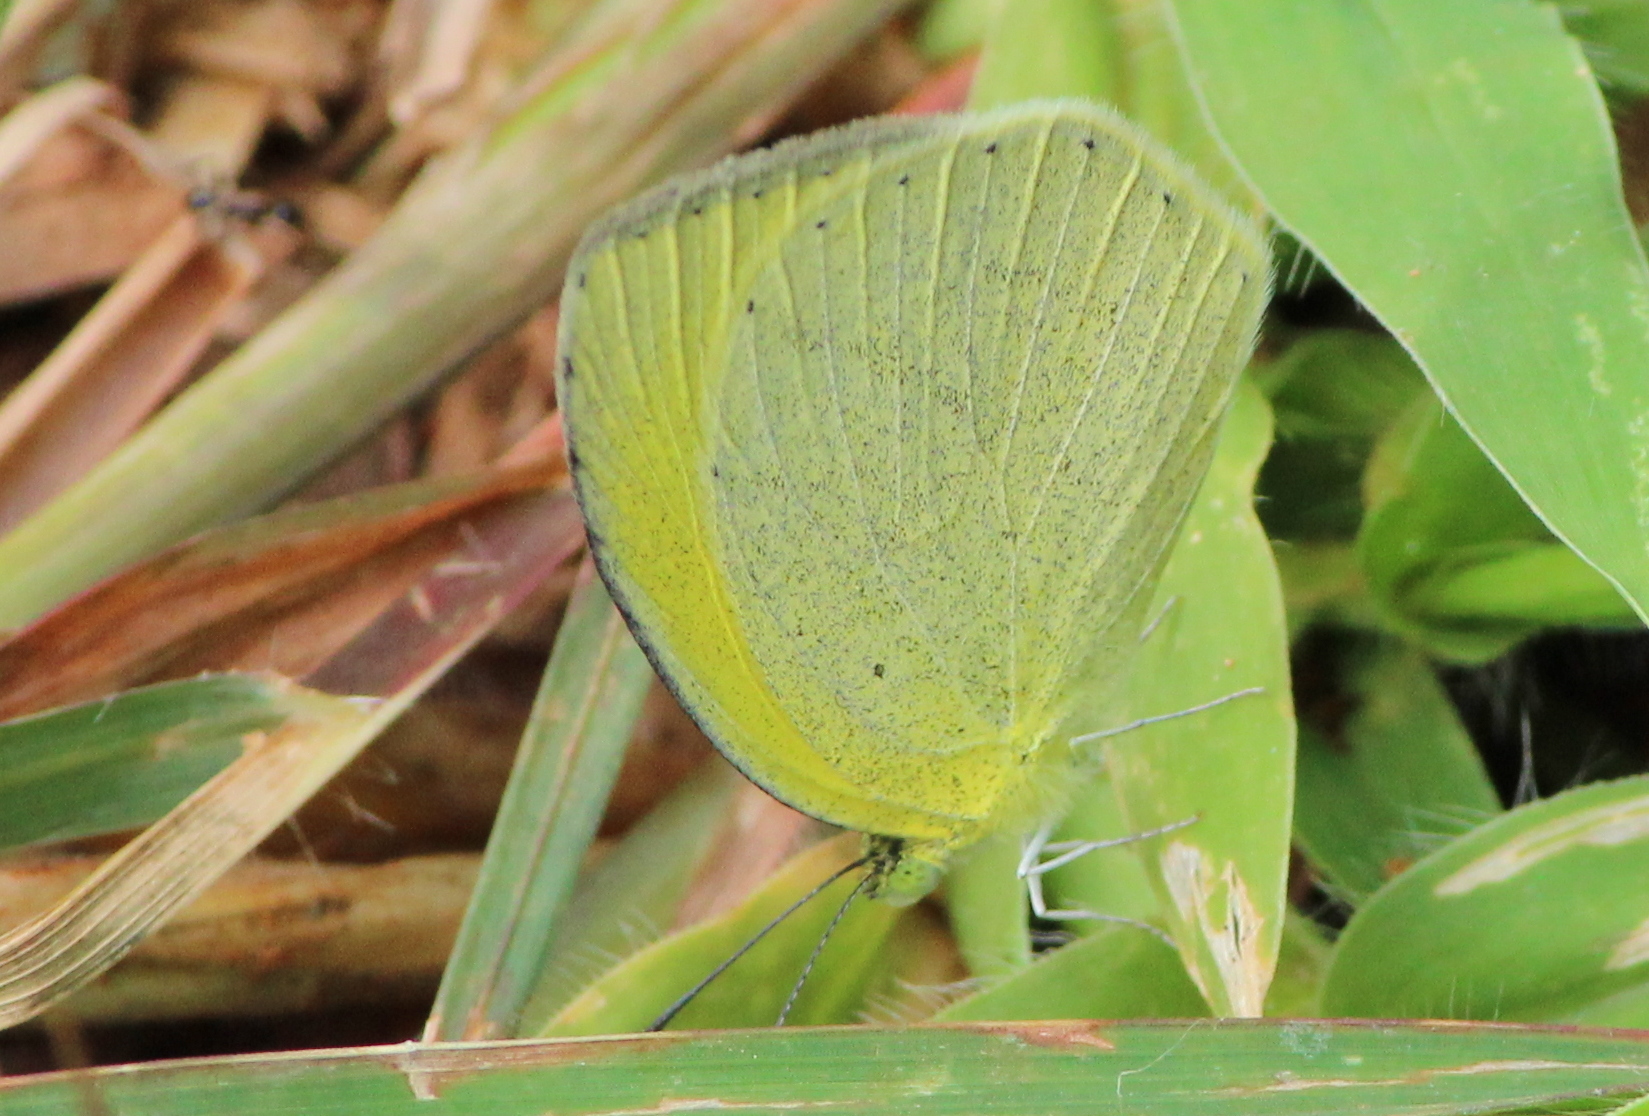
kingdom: Animalia
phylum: Arthropoda
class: Insecta
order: Lepidoptera
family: Pieridae
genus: Eurema
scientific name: Eurema laeta
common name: Spotless grass yellow
